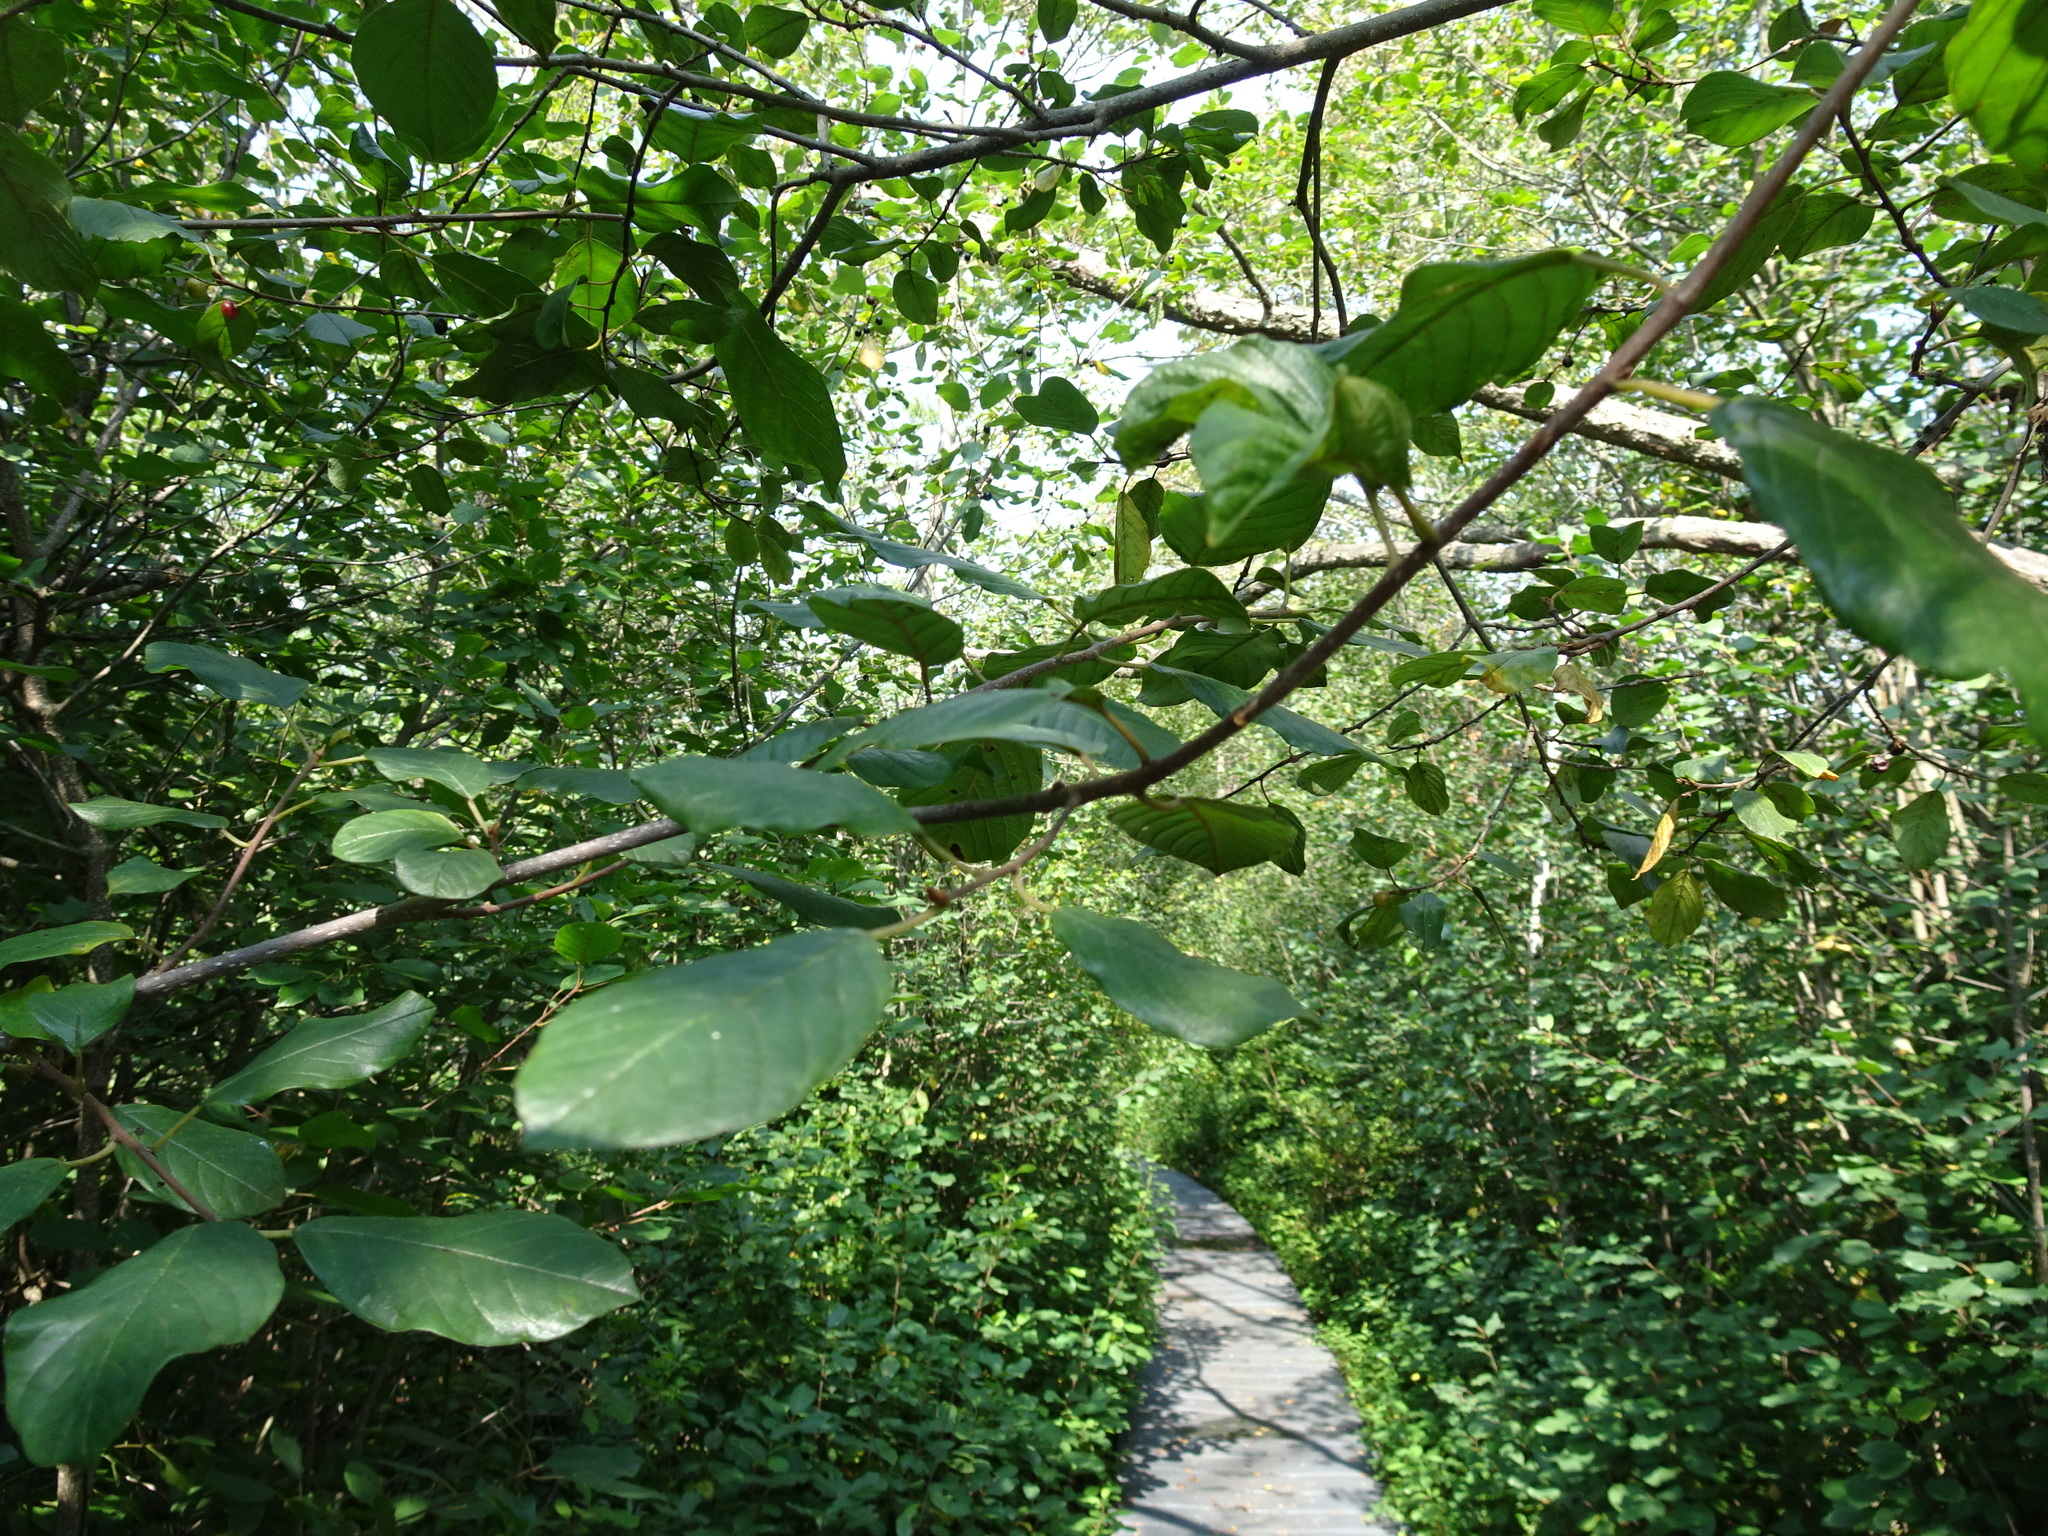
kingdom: Plantae
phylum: Tracheophyta
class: Magnoliopsida
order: Rosales
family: Rhamnaceae
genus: Frangula
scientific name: Frangula alnus
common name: Alder buckthorn
